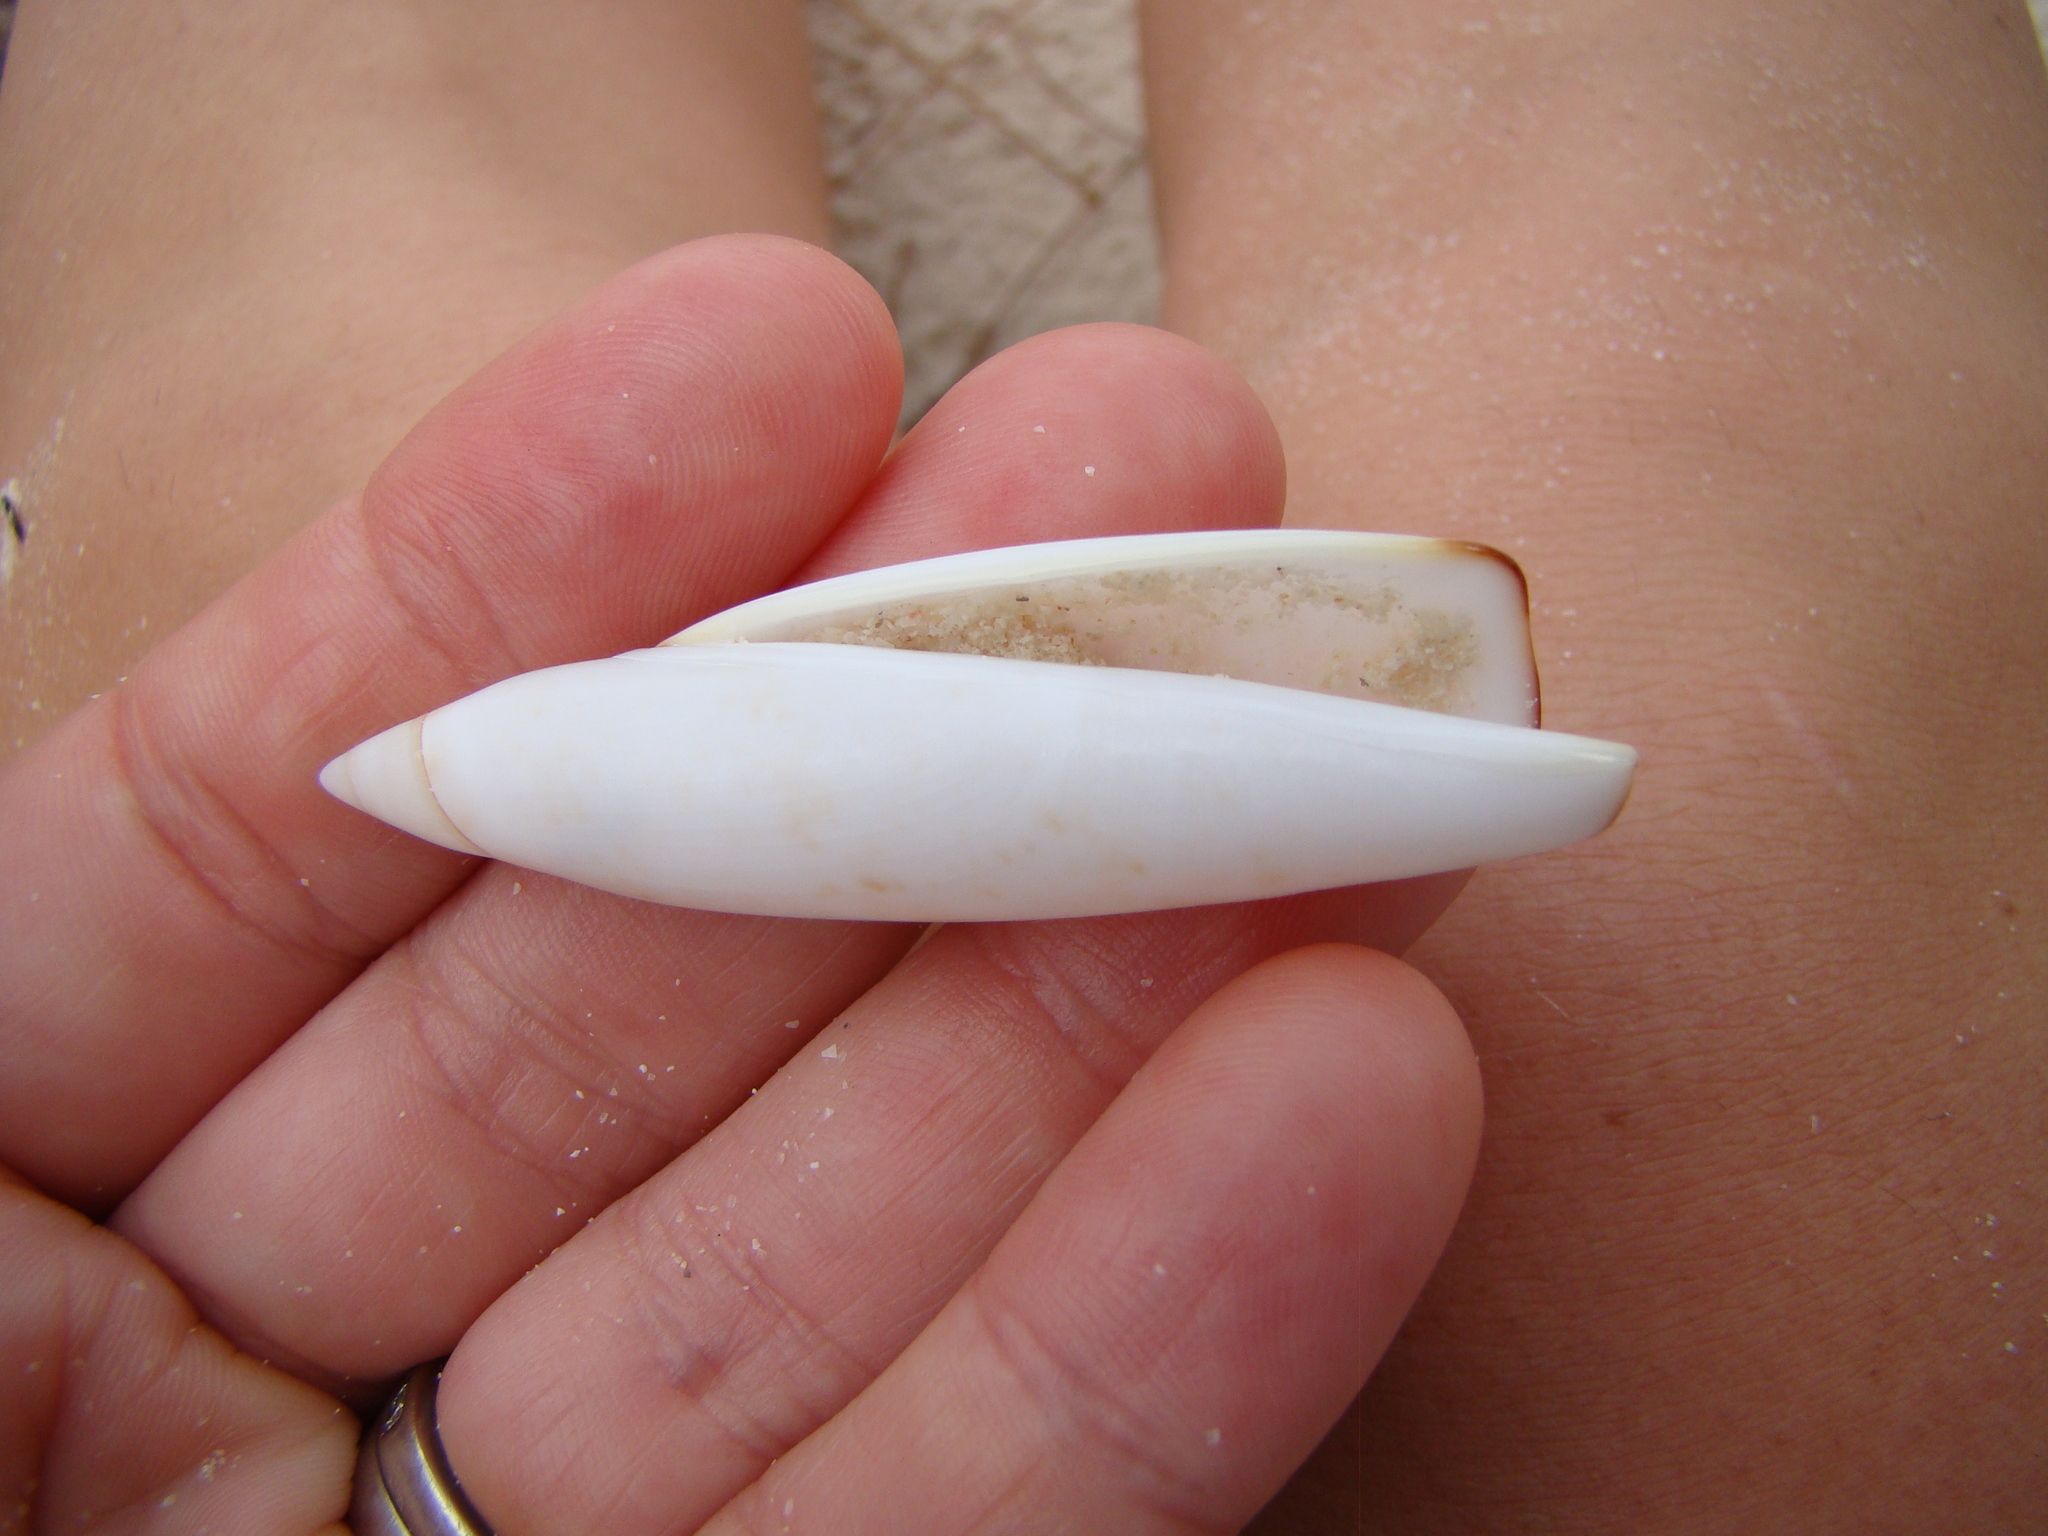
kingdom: Animalia
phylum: Mollusca
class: Gastropoda
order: Littorinimorpha
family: Seraphsidae
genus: Terebellum
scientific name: Terebellum terebellum
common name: Little auger
